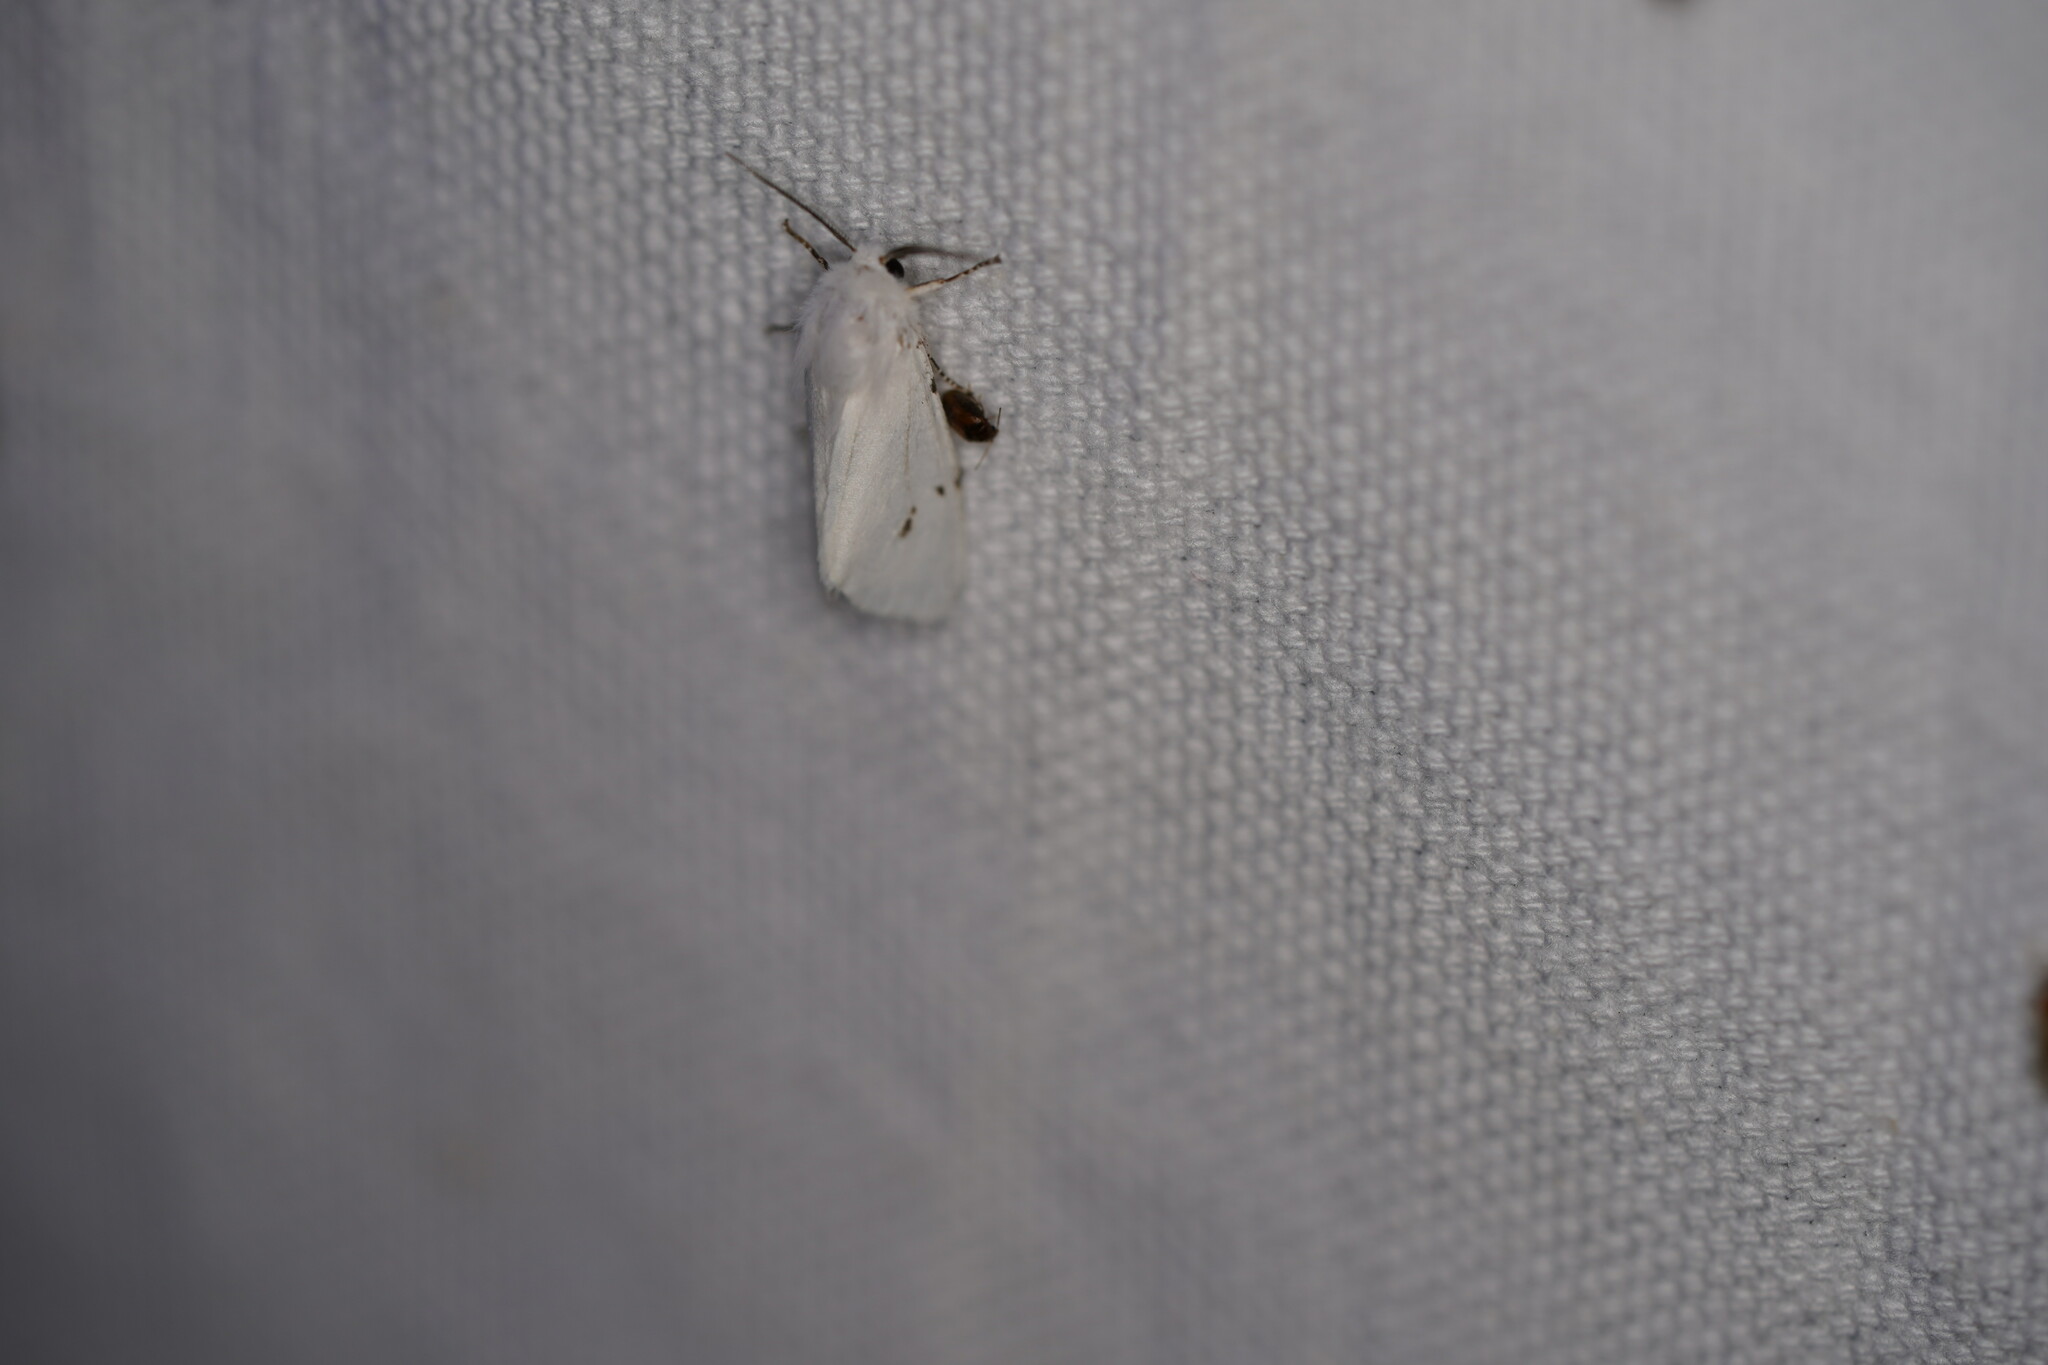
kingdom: Animalia
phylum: Arthropoda
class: Insecta
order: Lepidoptera
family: Erebidae
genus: Hyphantria
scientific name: Hyphantria cunea
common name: American white moth
